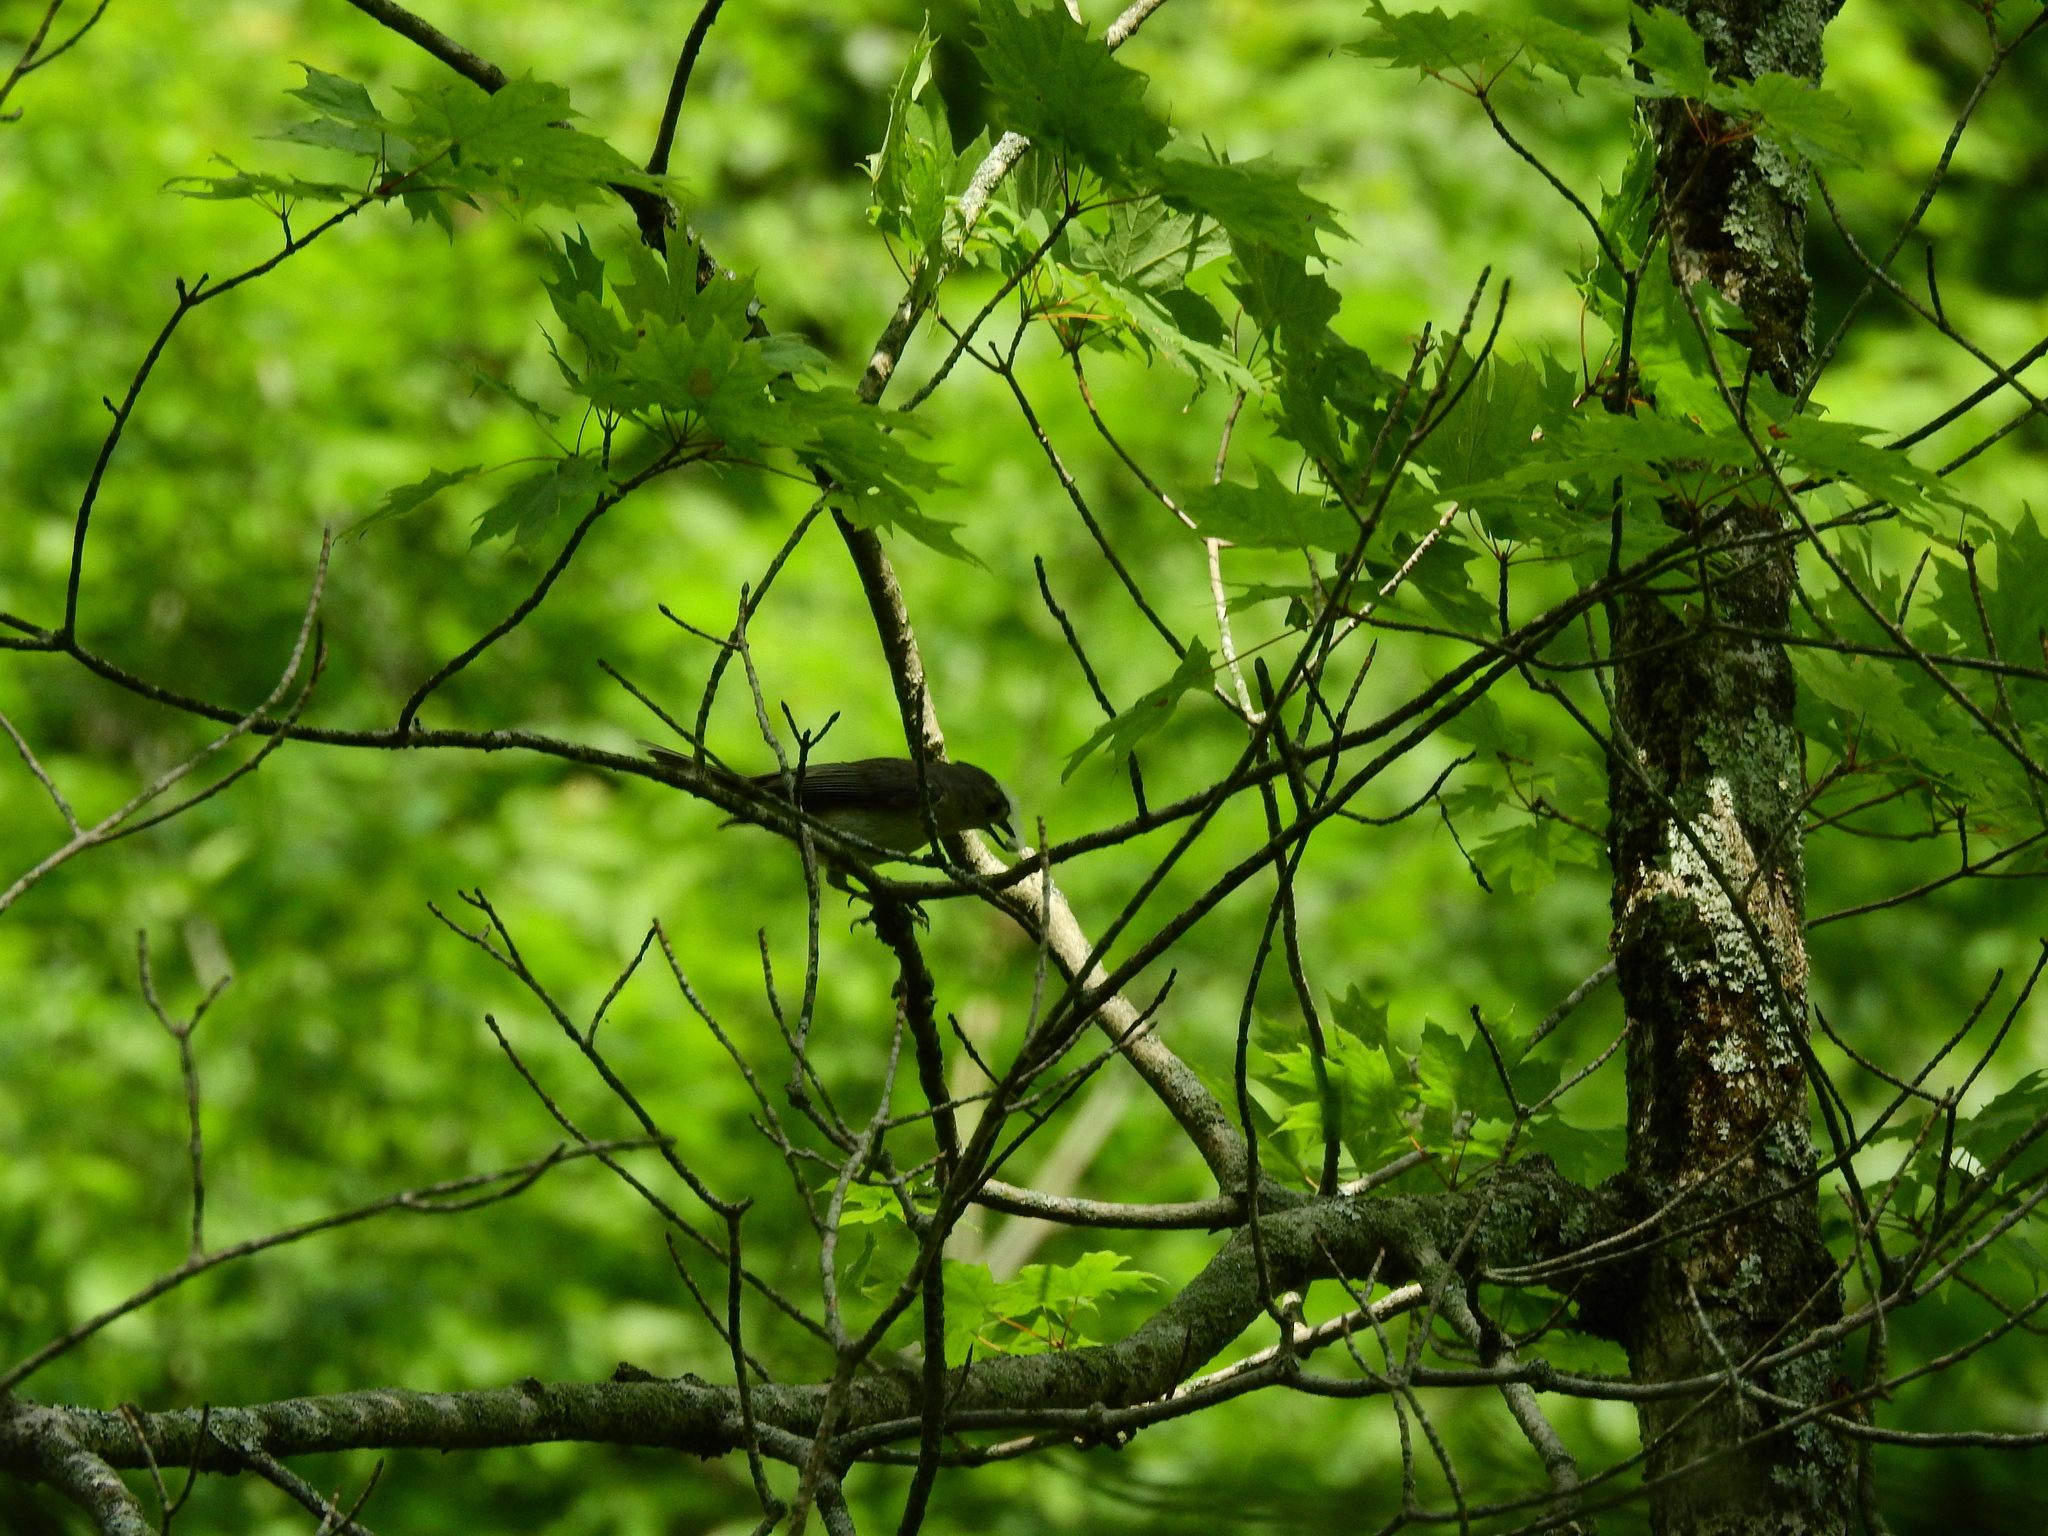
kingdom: Animalia
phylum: Chordata
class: Aves
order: Passeriformes
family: Paridae
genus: Baeolophus
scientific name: Baeolophus bicolor
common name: Tufted titmouse
